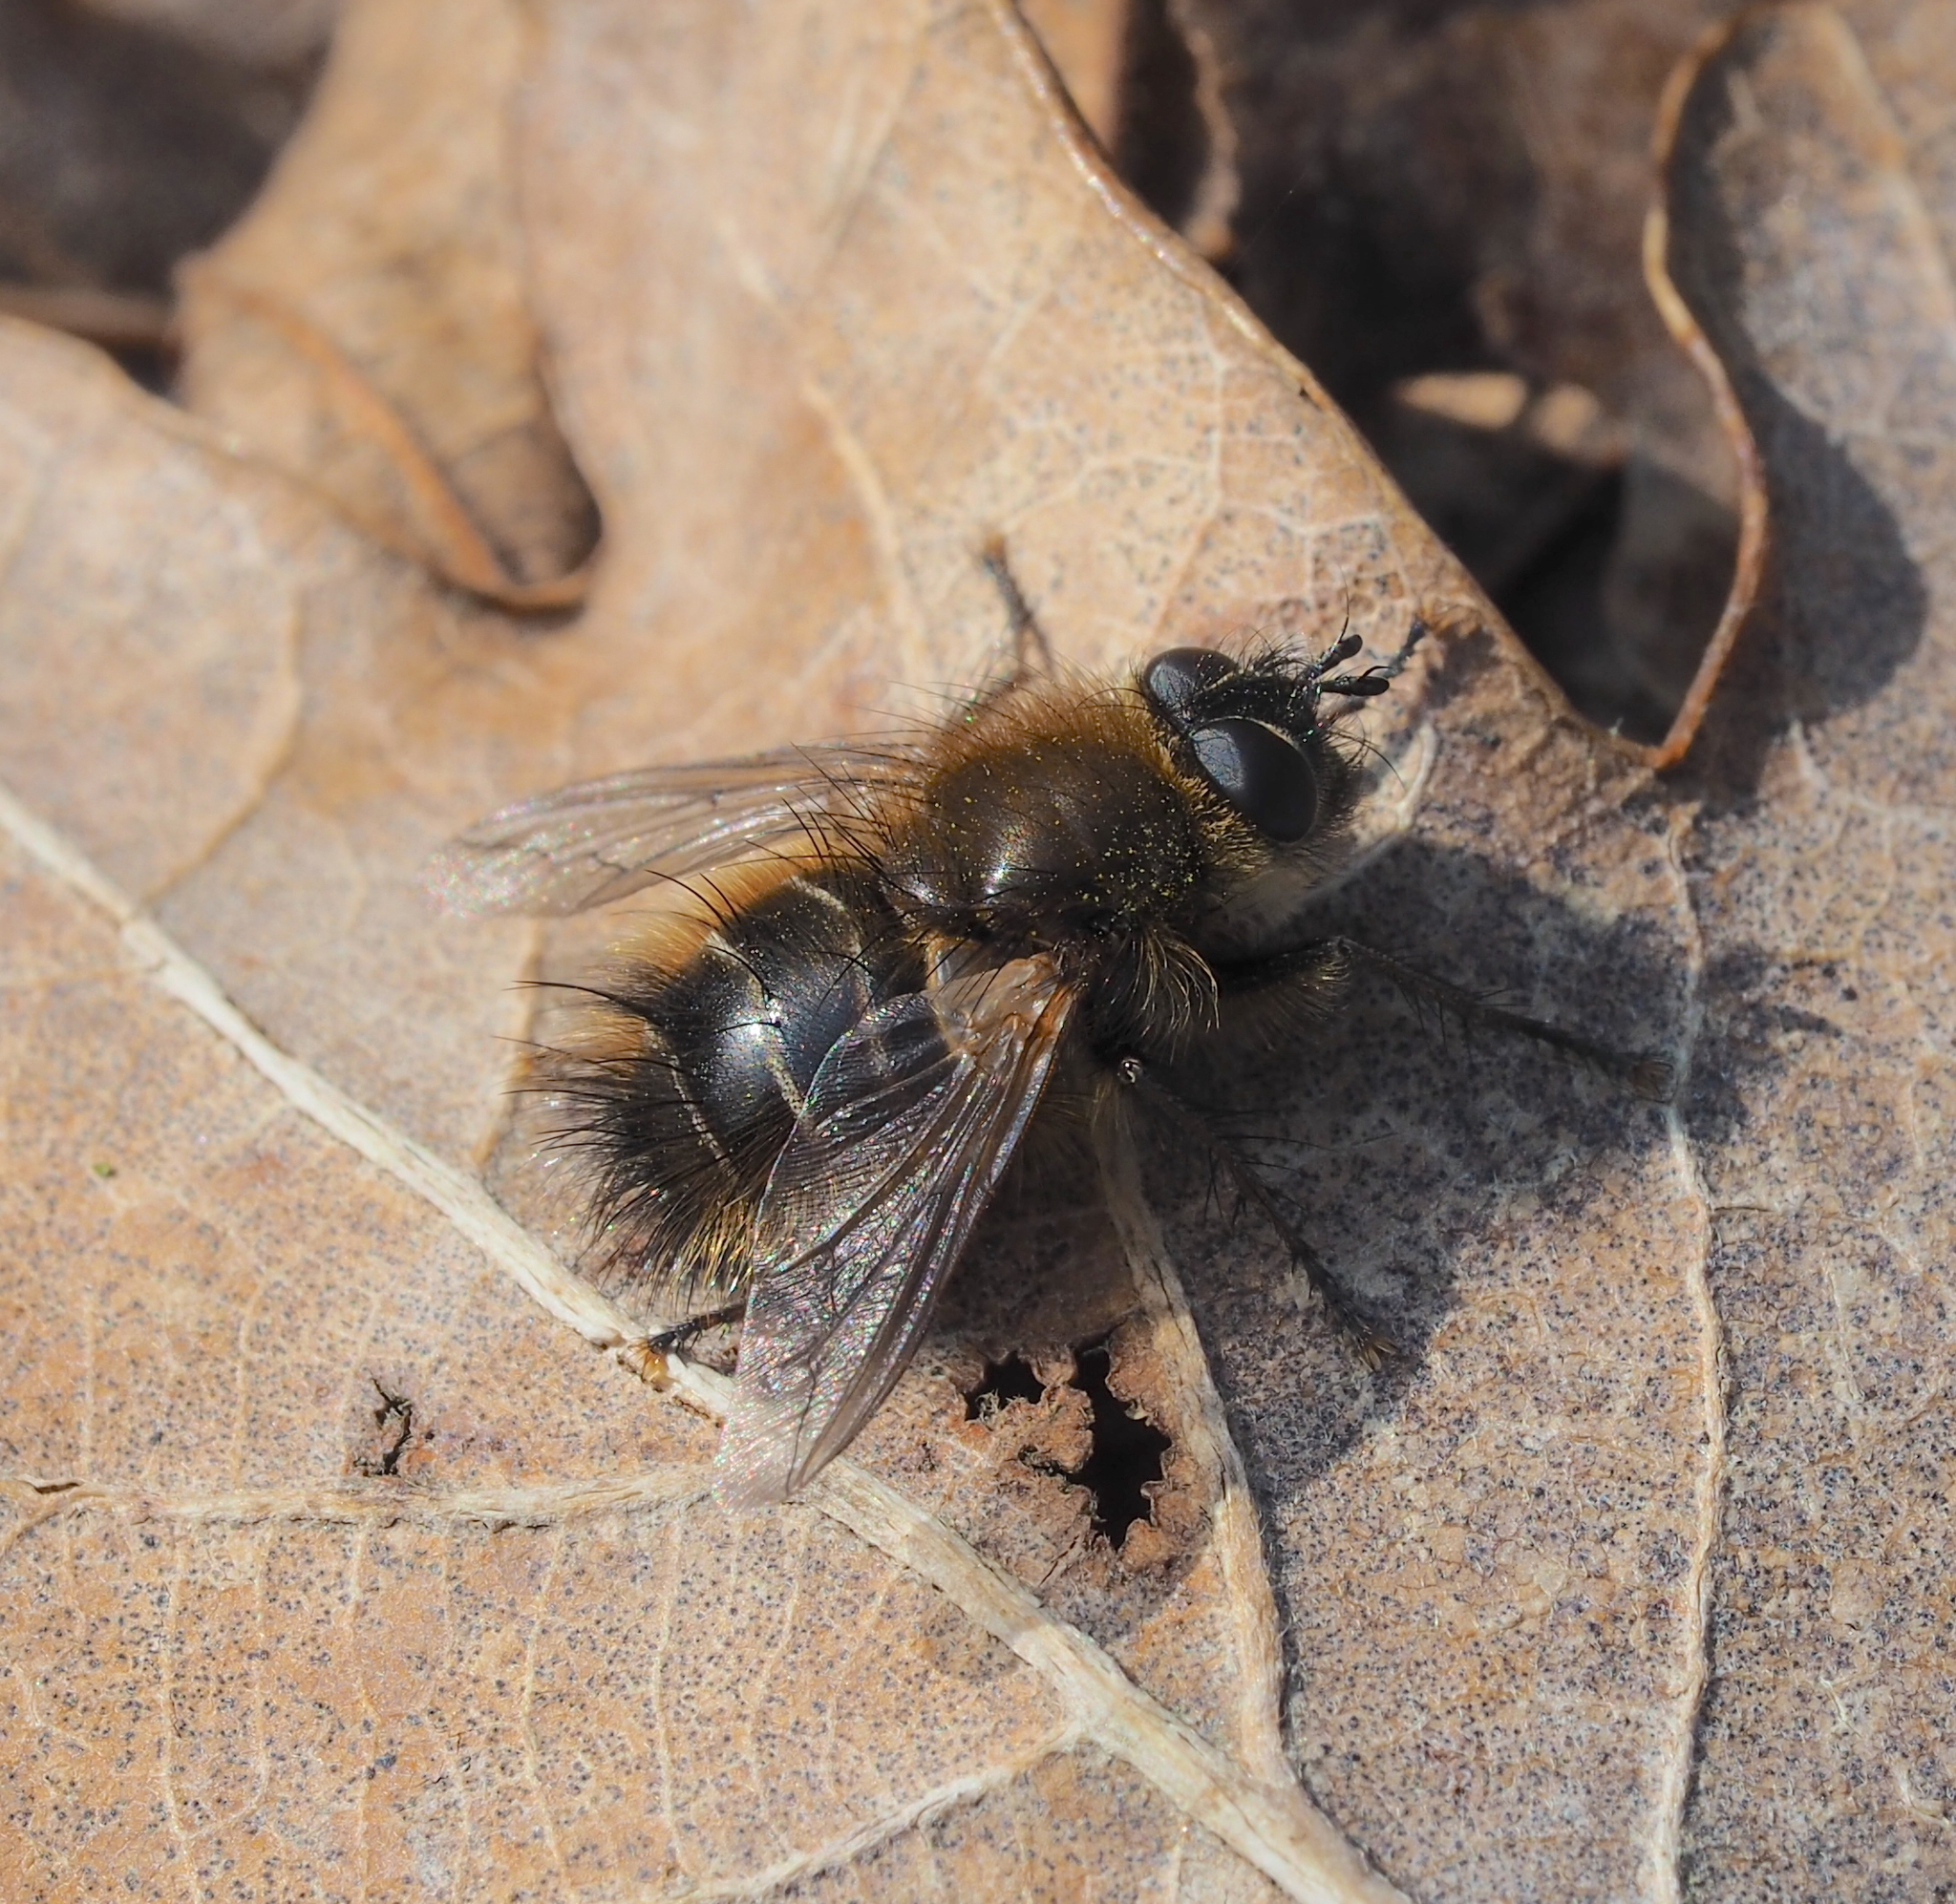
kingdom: Animalia
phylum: Arthropoda
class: Insecta
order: Diptera
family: Tachinidae
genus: Tachina
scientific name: Tachina ursina
